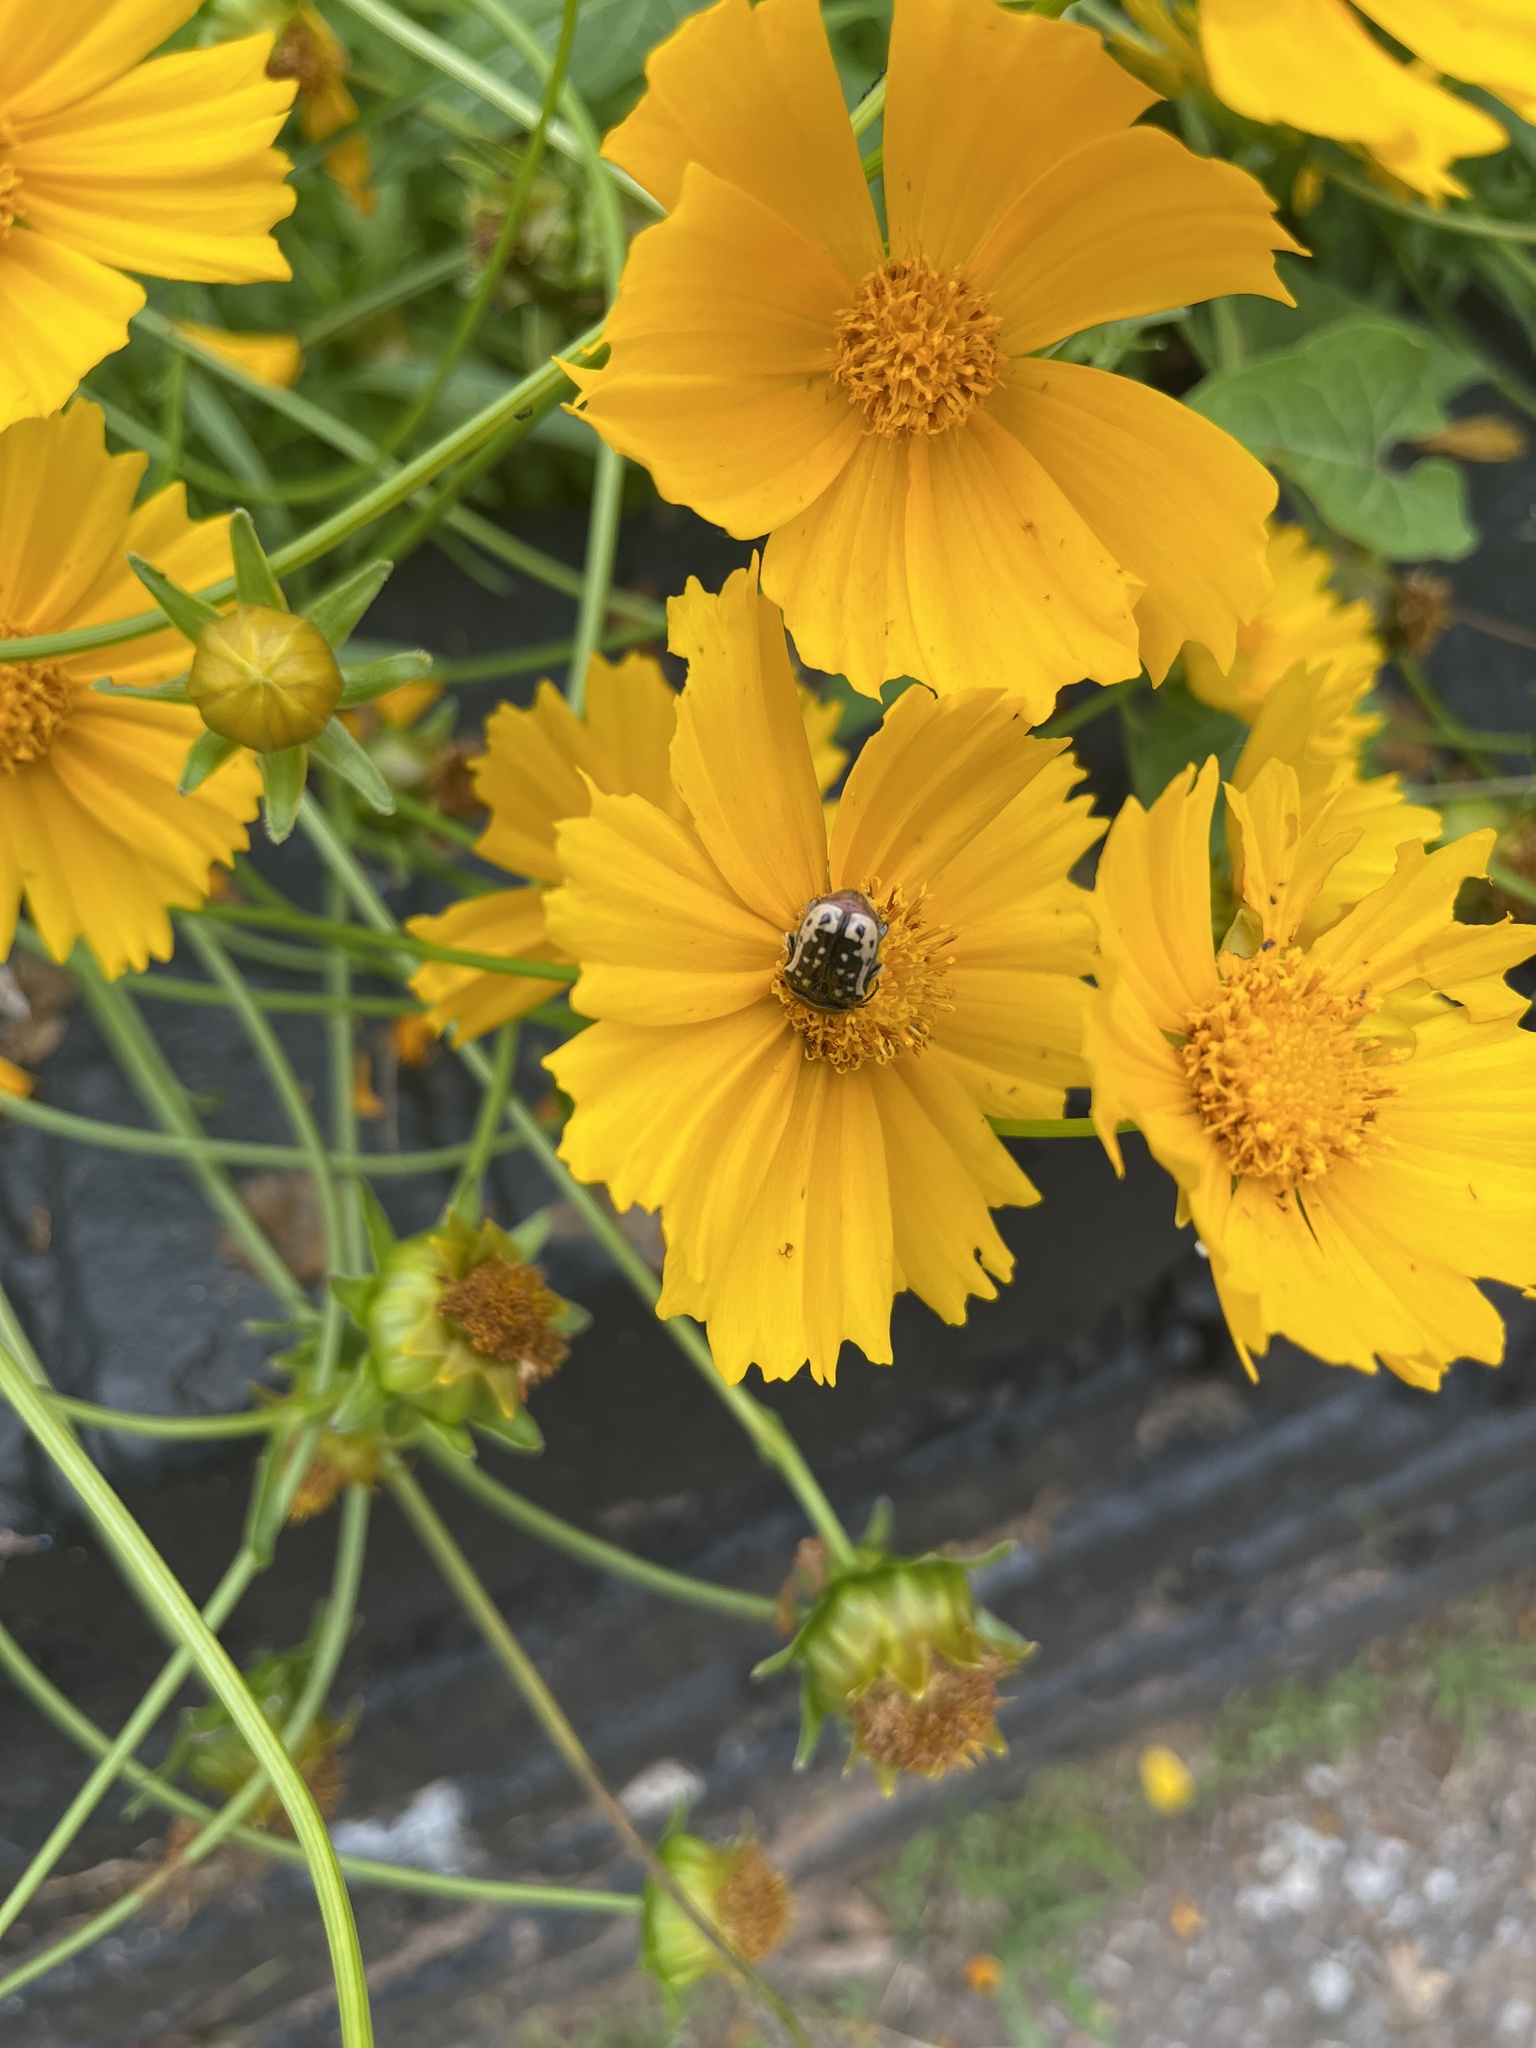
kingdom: Animalia
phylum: Arthropoda
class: Insecta
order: Coleoptera
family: Scarabaeidae
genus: Euphoria
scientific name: Euphoria kernii
